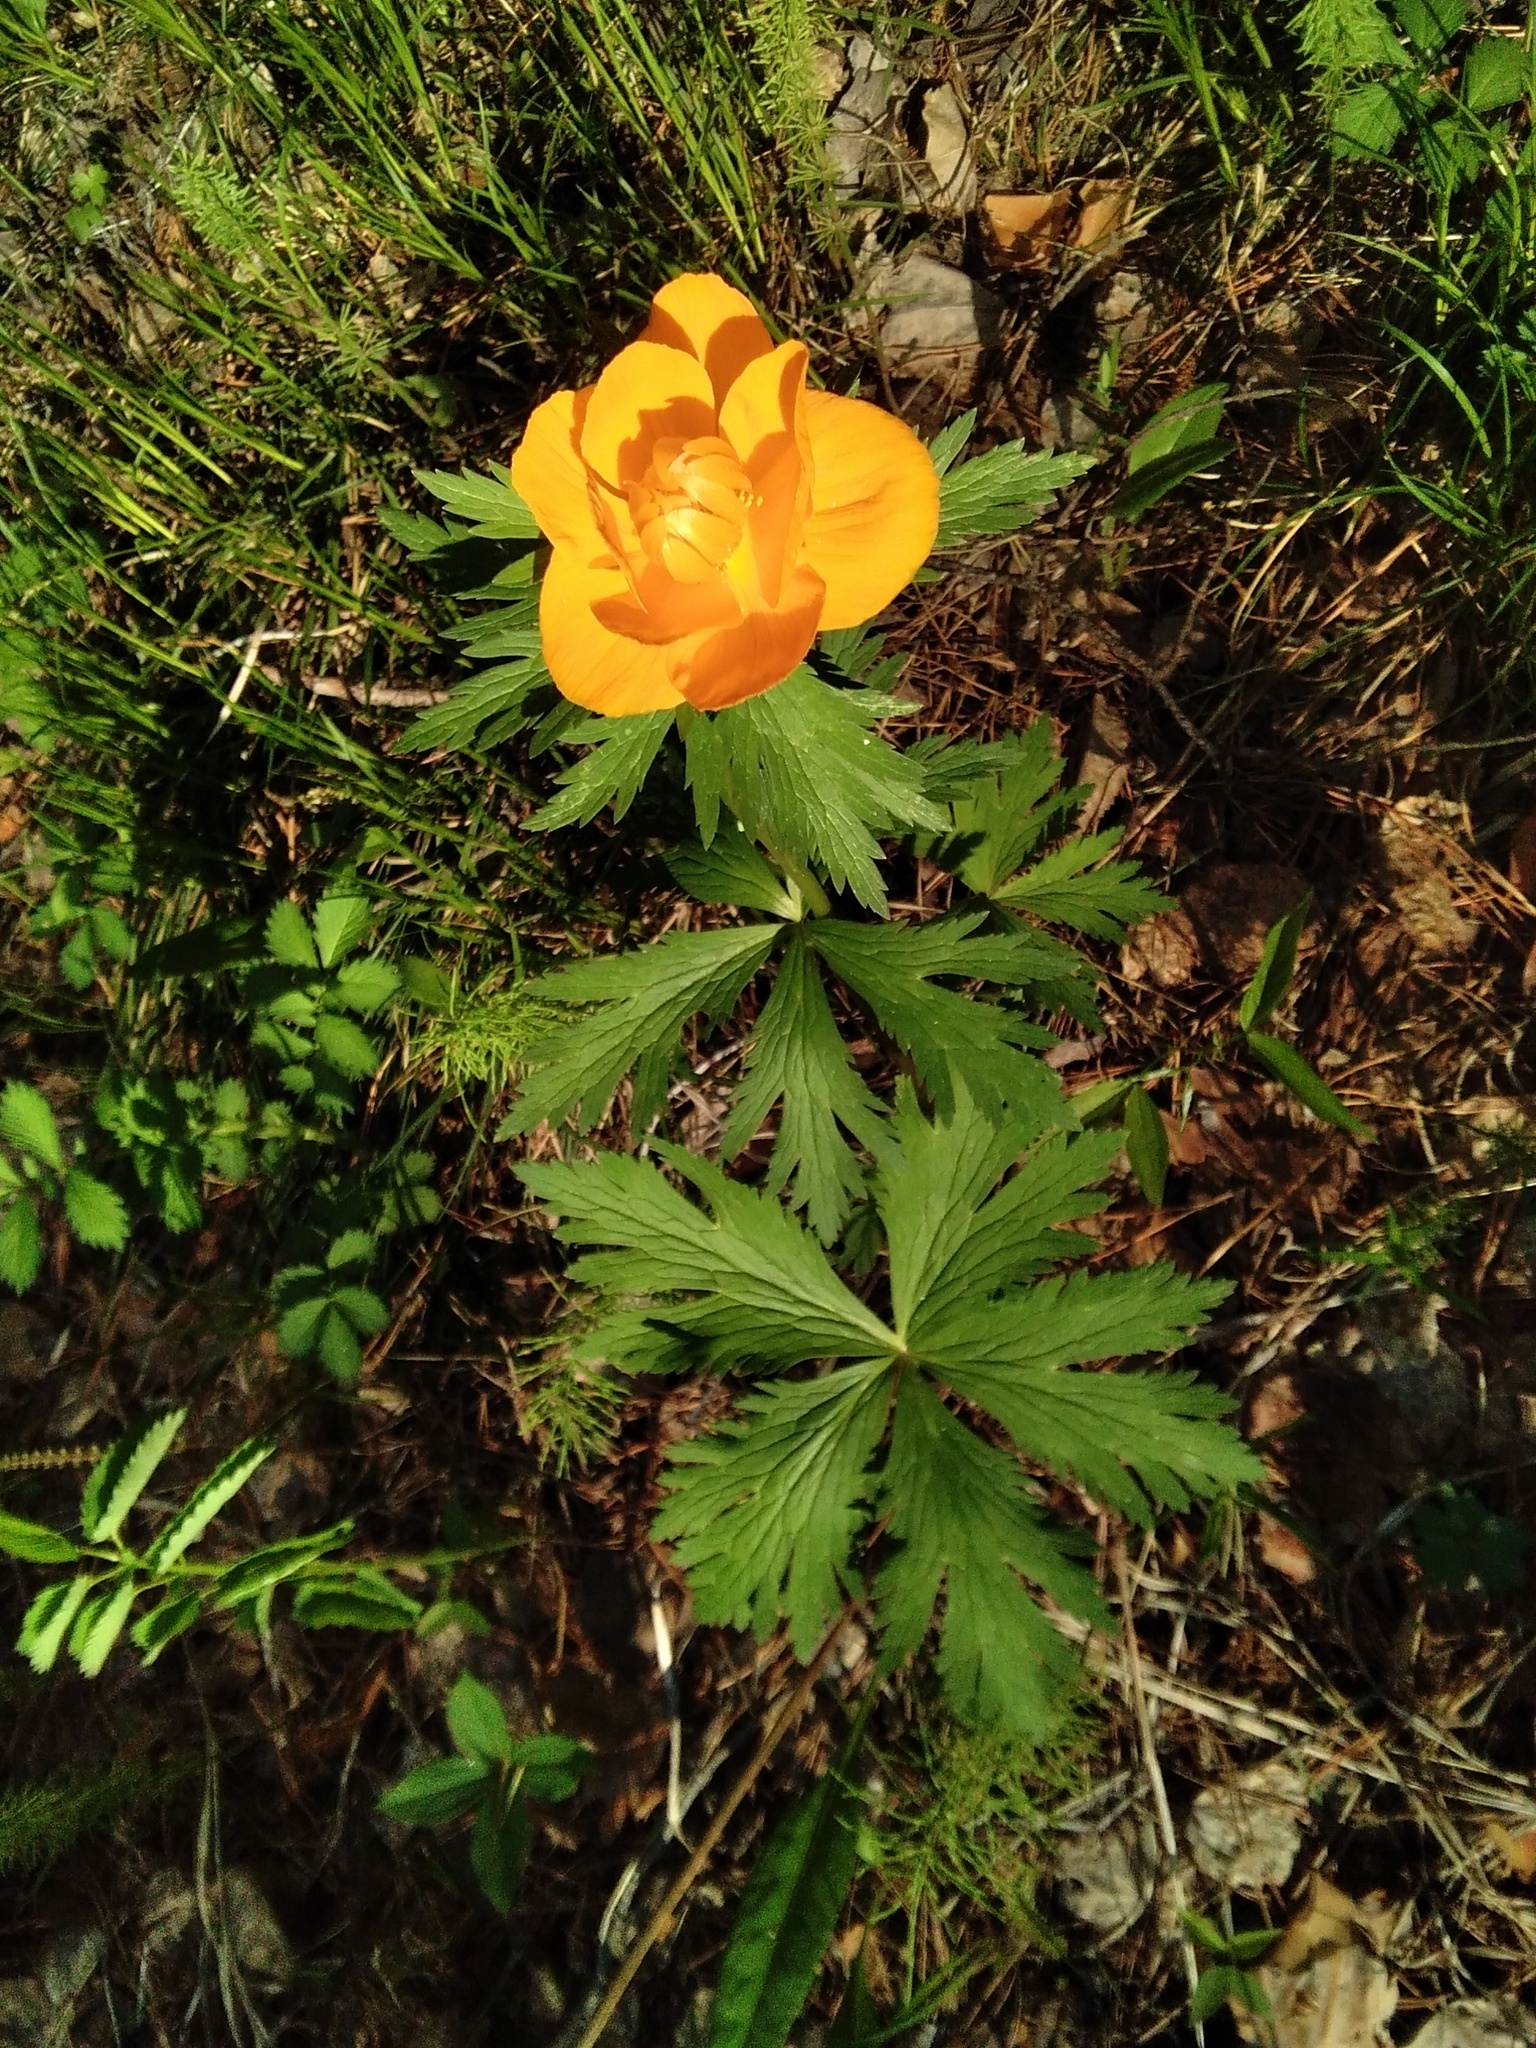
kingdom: Plantae
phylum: Tracheophyta
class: Magnoliopsida
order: Ranunculales
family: Ranunculaceae
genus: Trollius
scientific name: Trollius asiaticus
